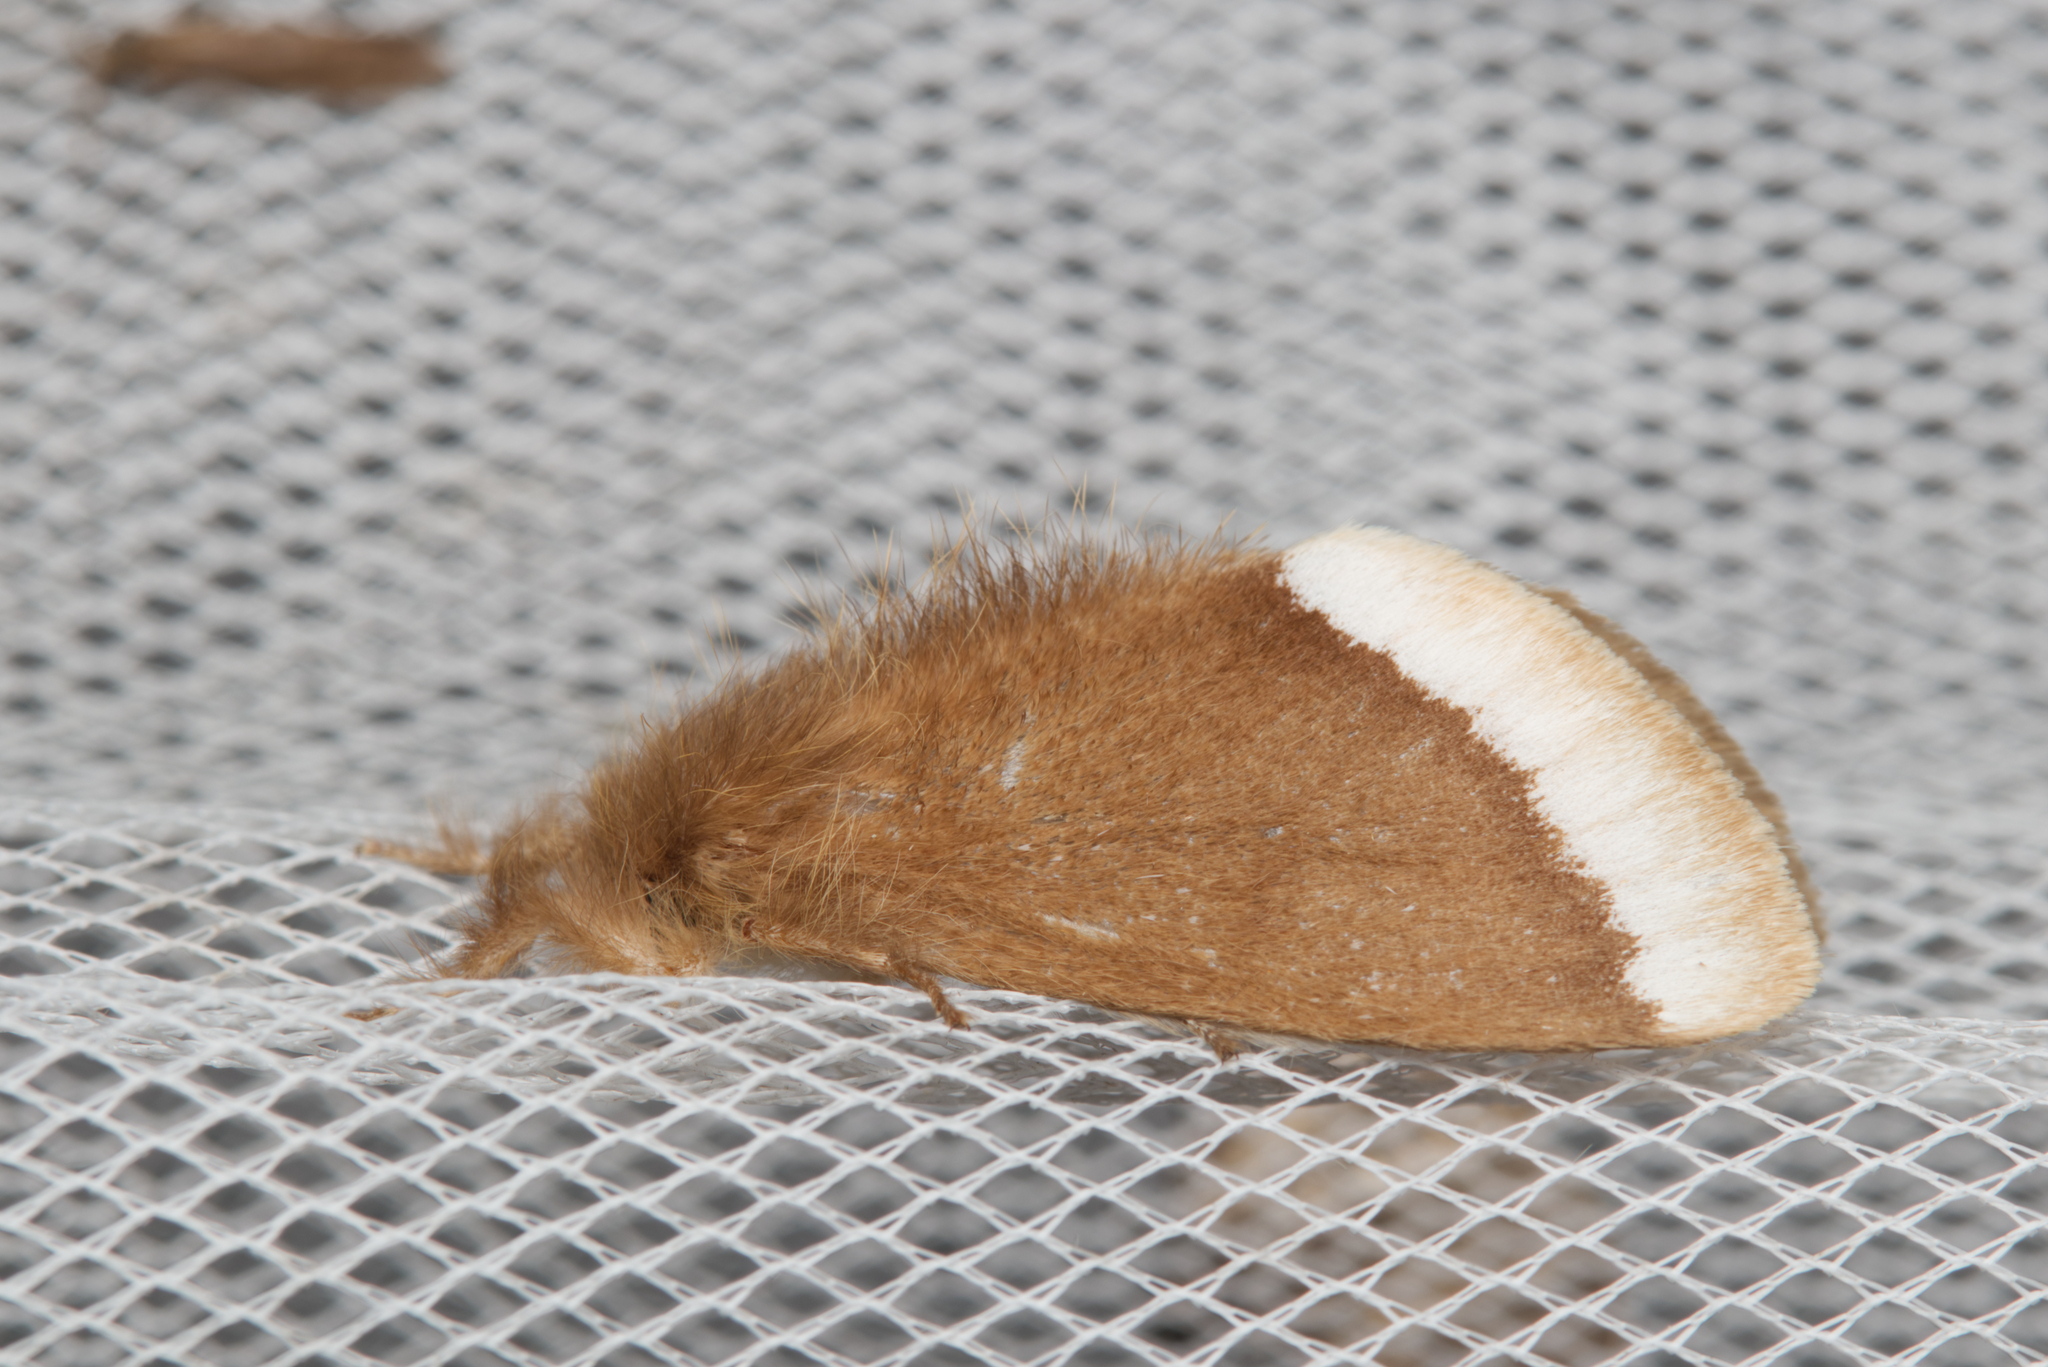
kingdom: Animalia
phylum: Arthropoda
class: Insecta
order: Lepidoptera
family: Erebidae
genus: Euproctis
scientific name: Euproctis
